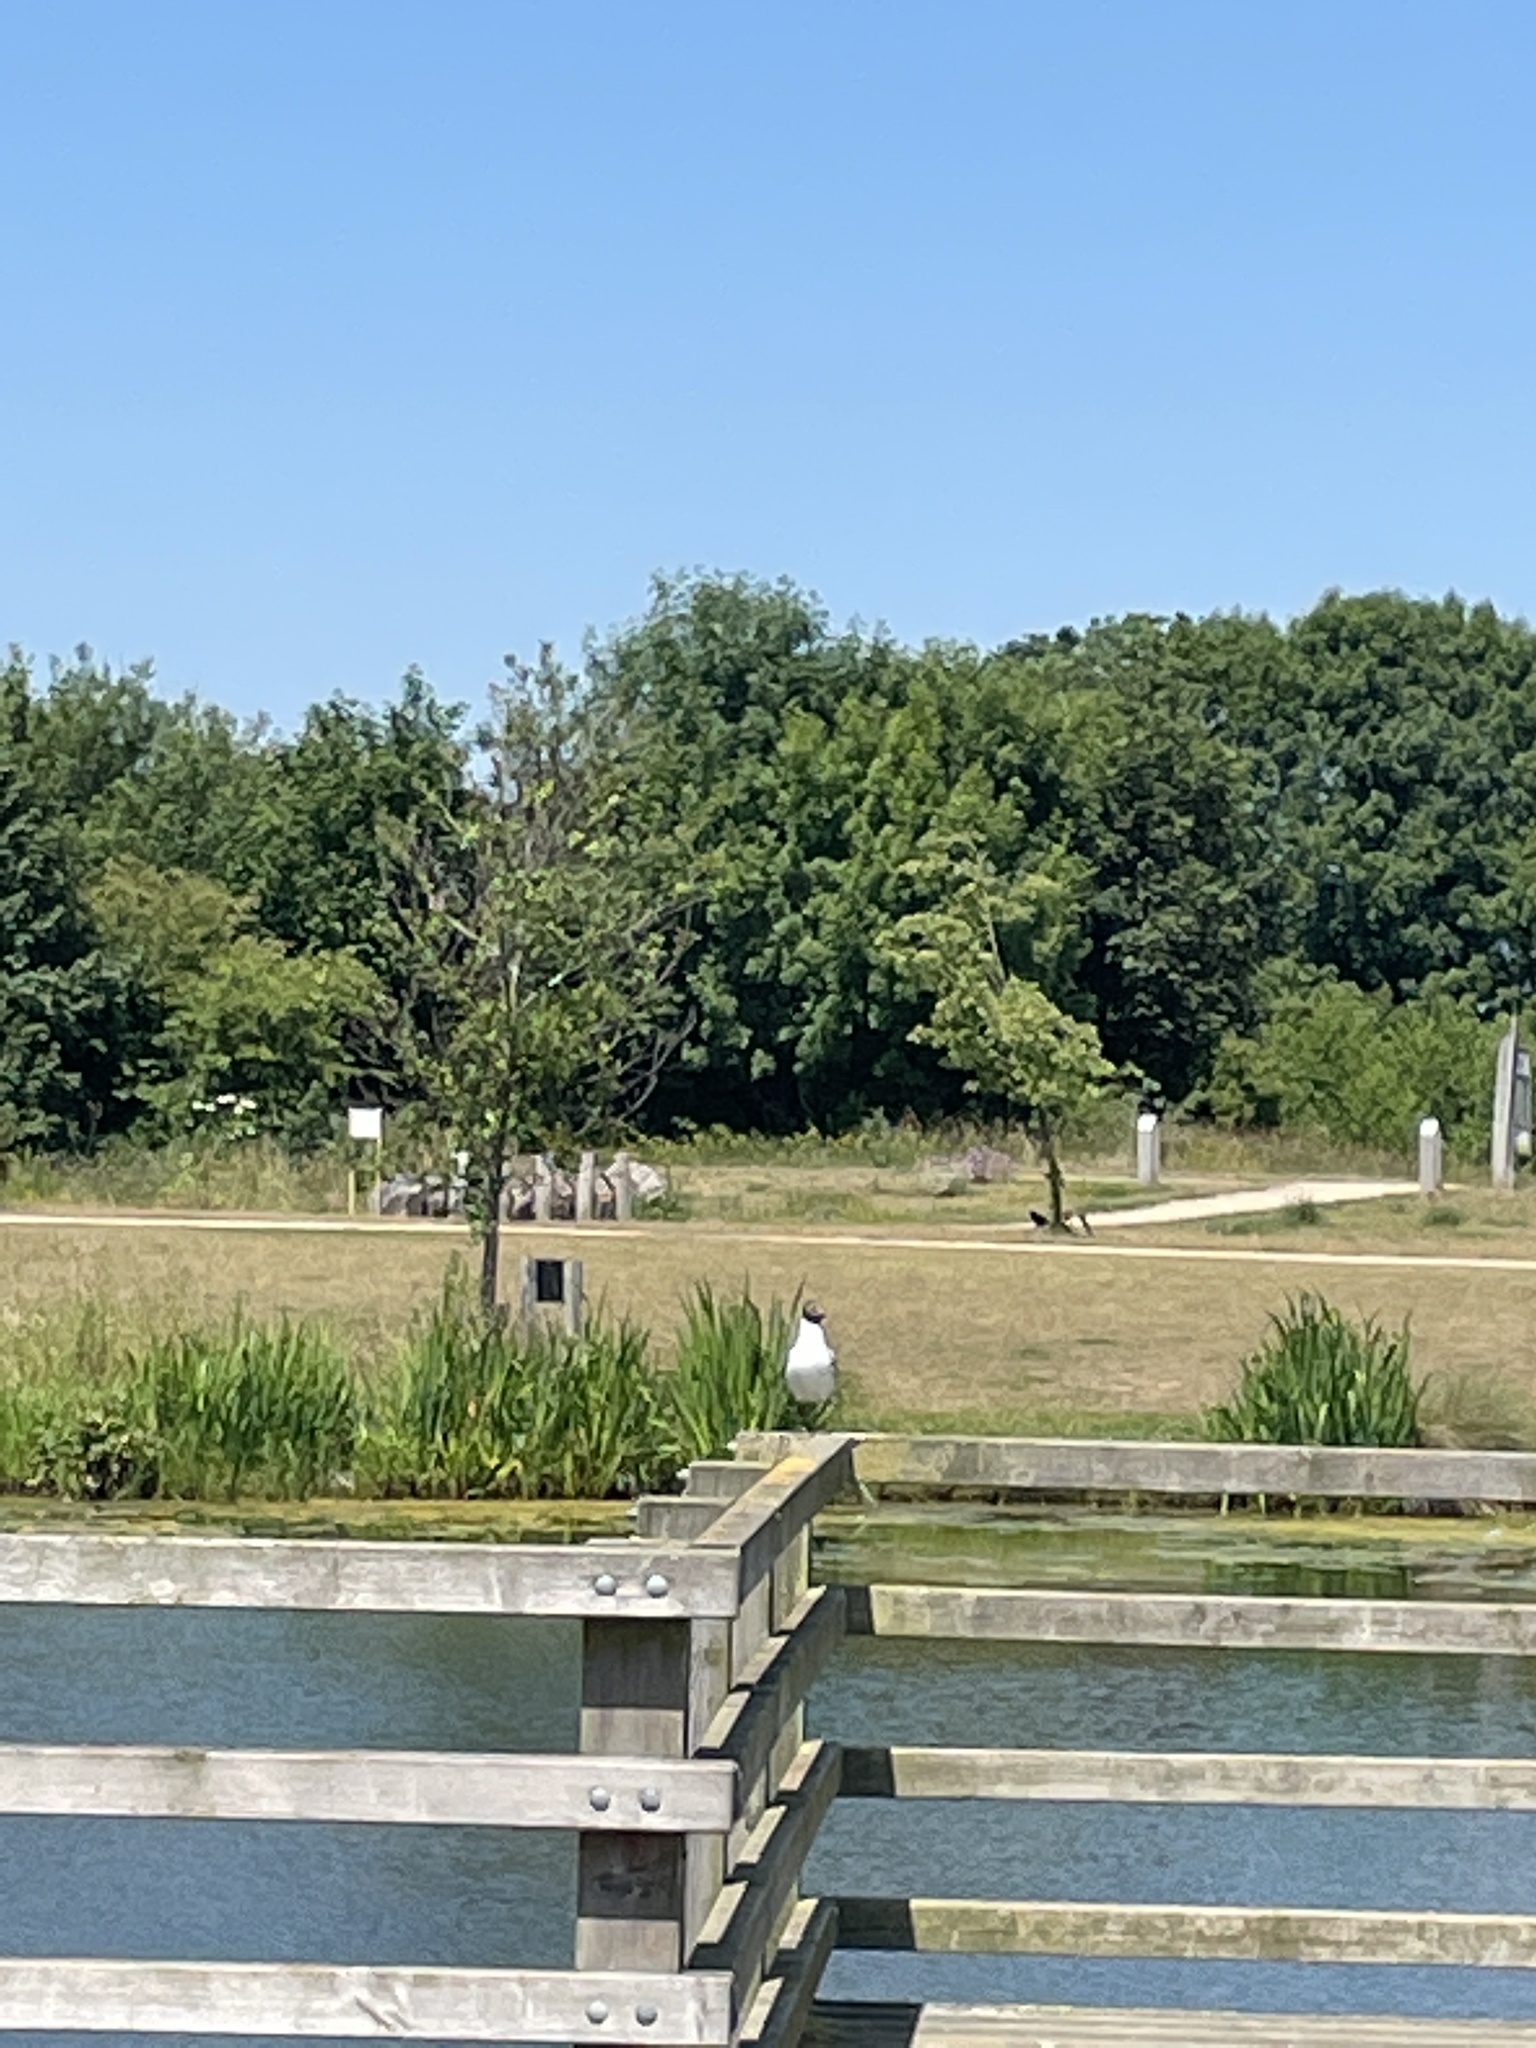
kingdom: Animalia
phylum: Chordata
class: Aves
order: Charadriiformes
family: Laridae
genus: Chroicocephalus
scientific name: Chroicocephalus ridibundus
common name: Black-headed gull
